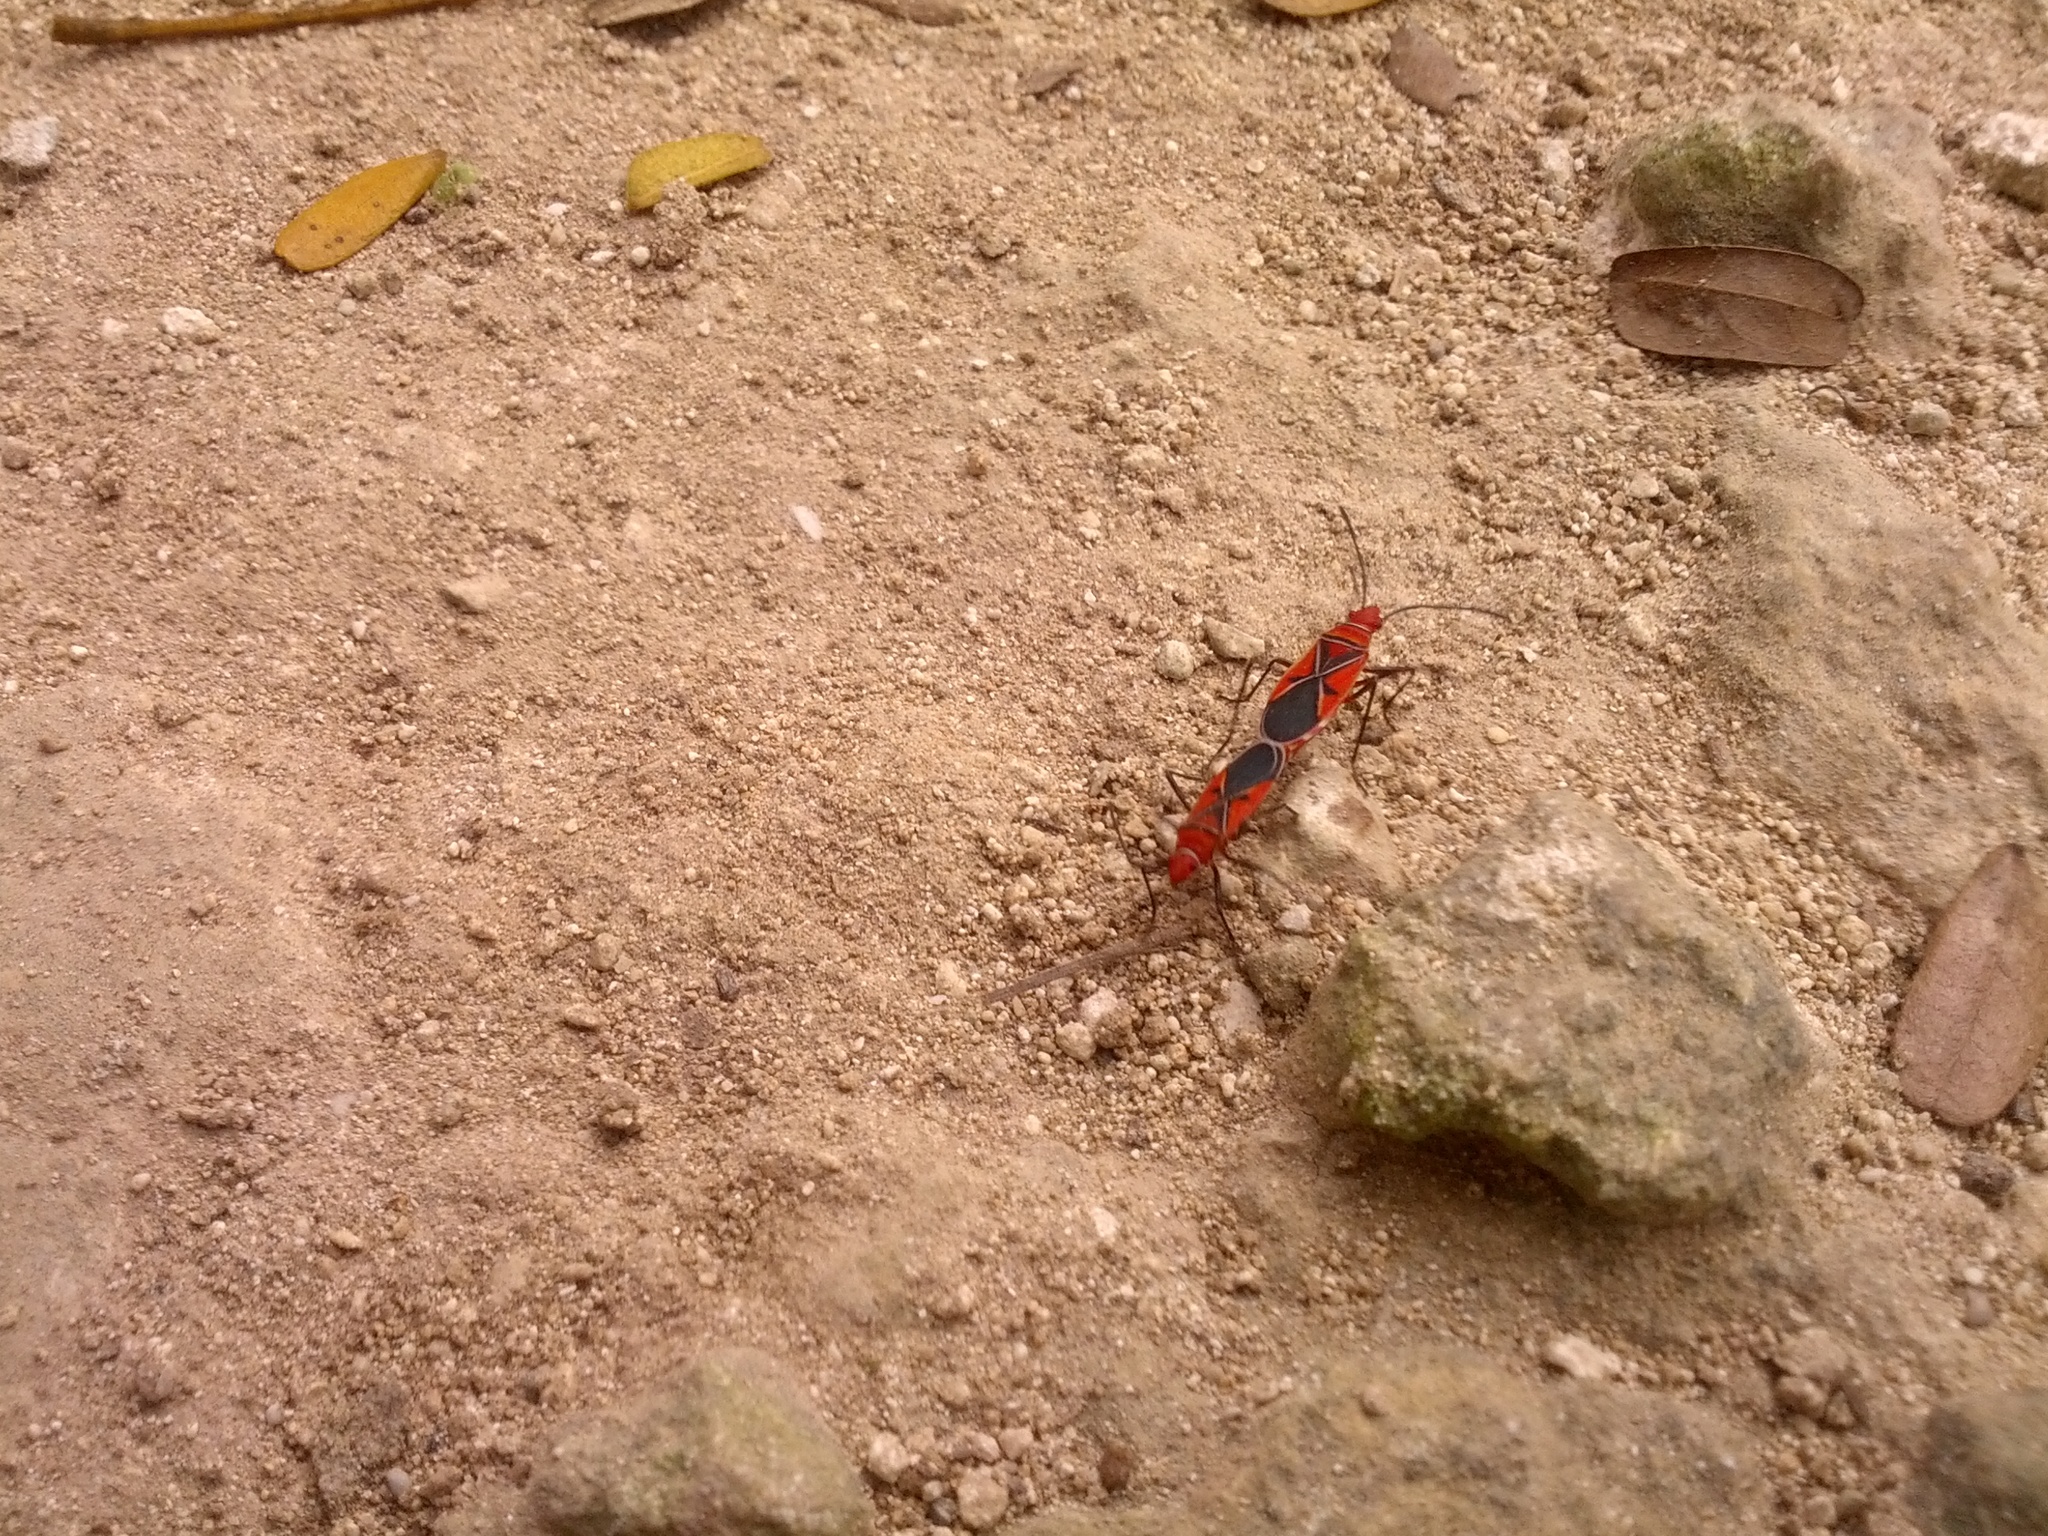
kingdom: Animalia
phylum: Arthropoda
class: Insecta
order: Hemiptera
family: Pyrrhocoridae
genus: Dysdercus
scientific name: Dysdercus andreae
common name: St. andrew's cotton stainer
